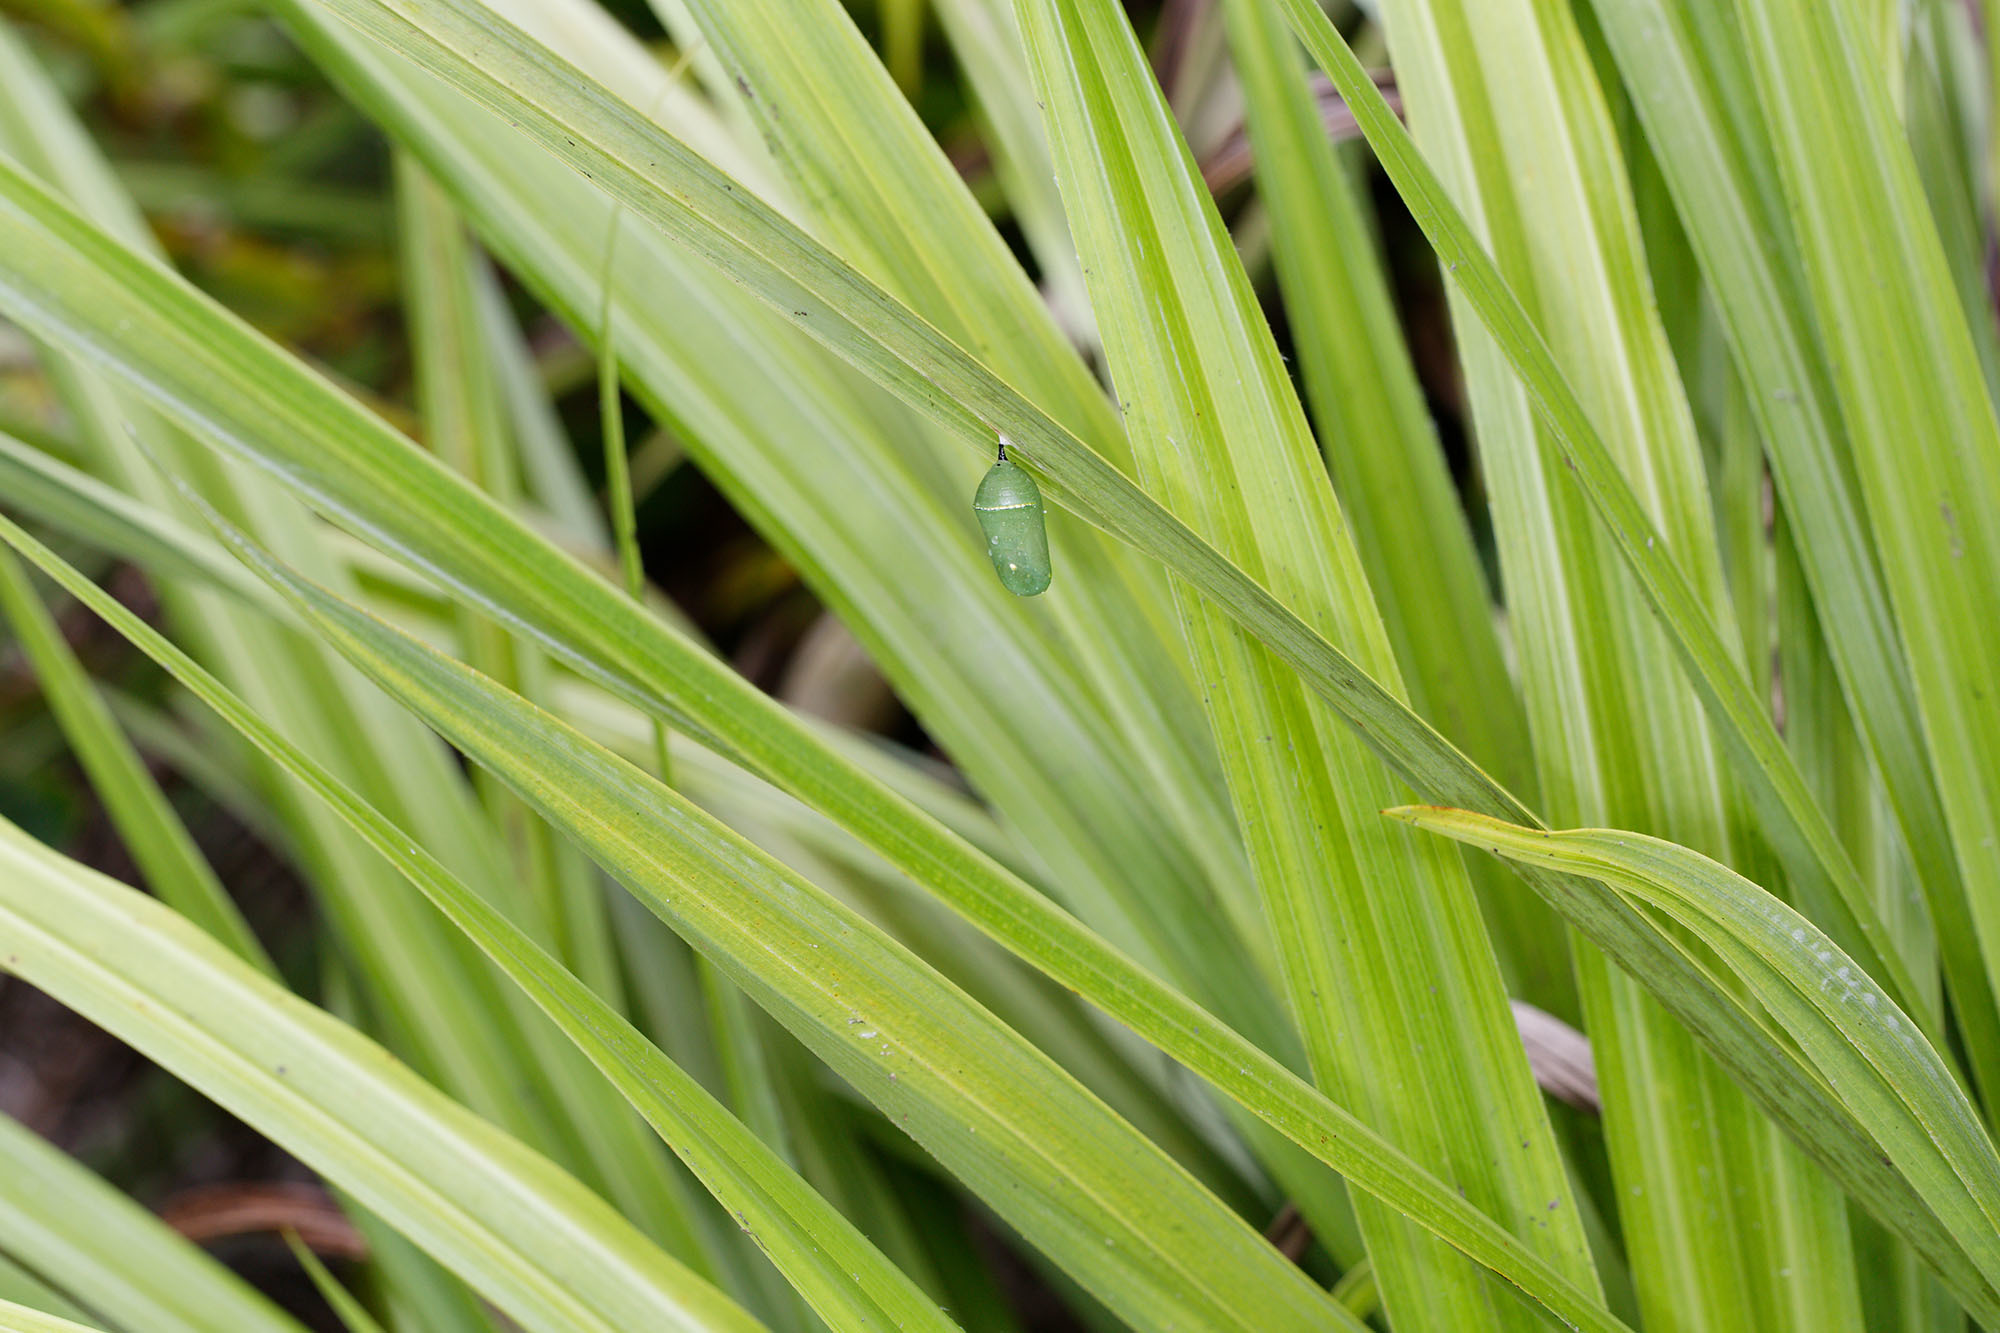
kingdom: Animalia
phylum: Arthropoda
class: Insecta
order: Lepidoptera
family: Nymphalidae
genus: Danaus
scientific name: Danaus plexippus
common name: Monarch
